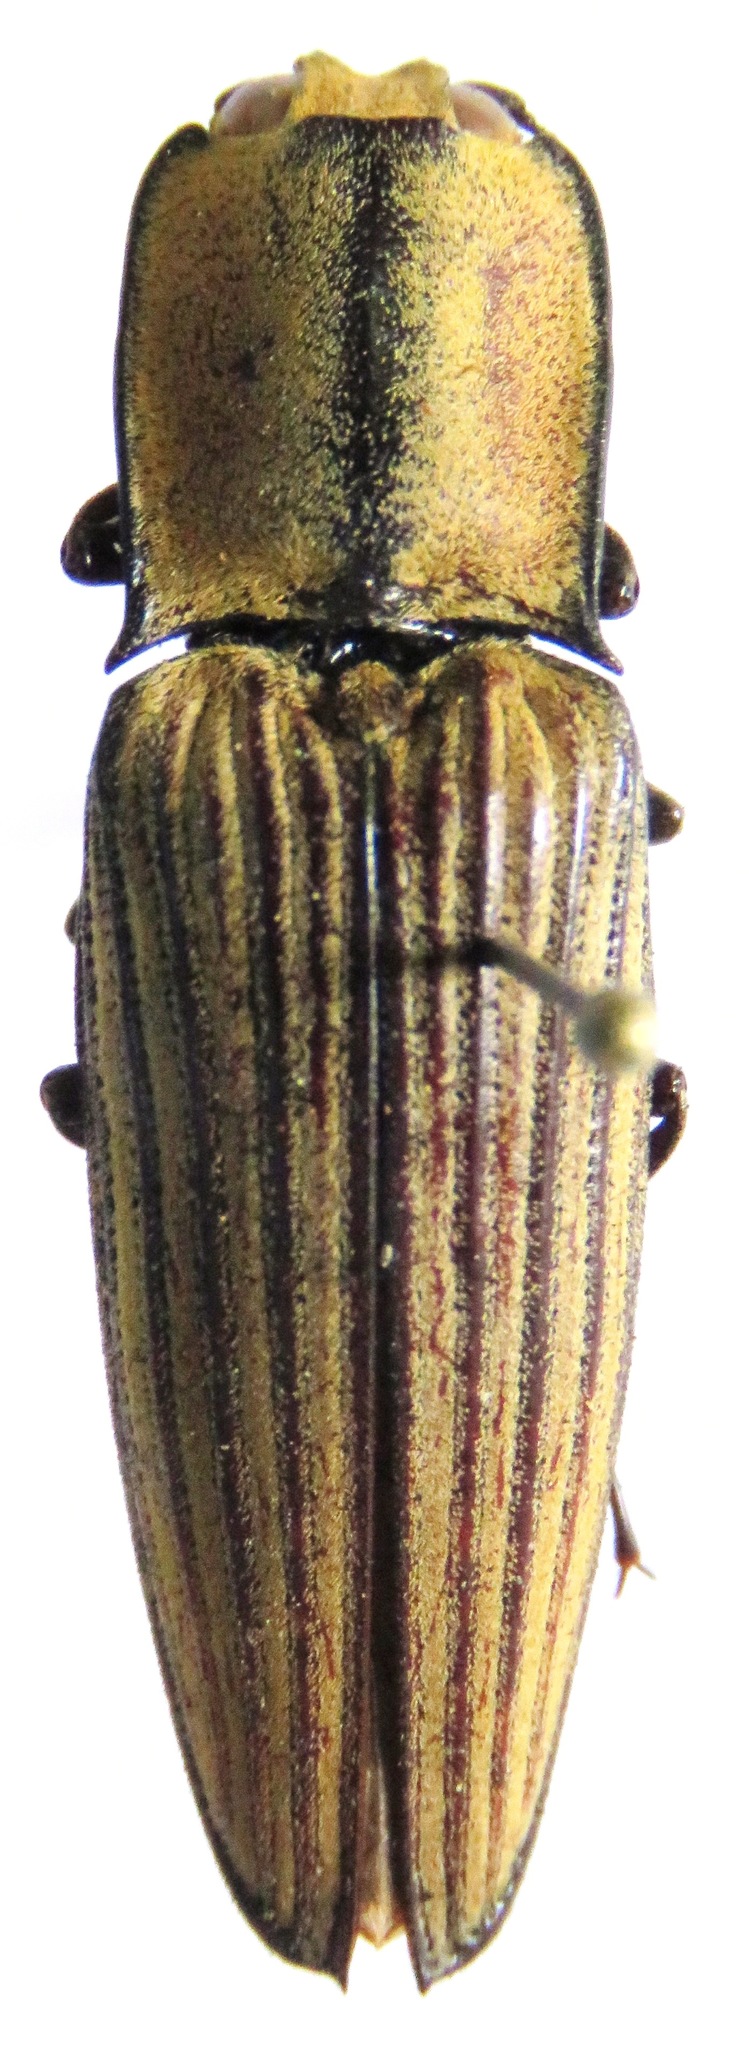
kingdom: Animalia
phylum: Arthropoda
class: Insecta
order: Coleoptera
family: Elateridae
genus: Alaus
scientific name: Alaus
